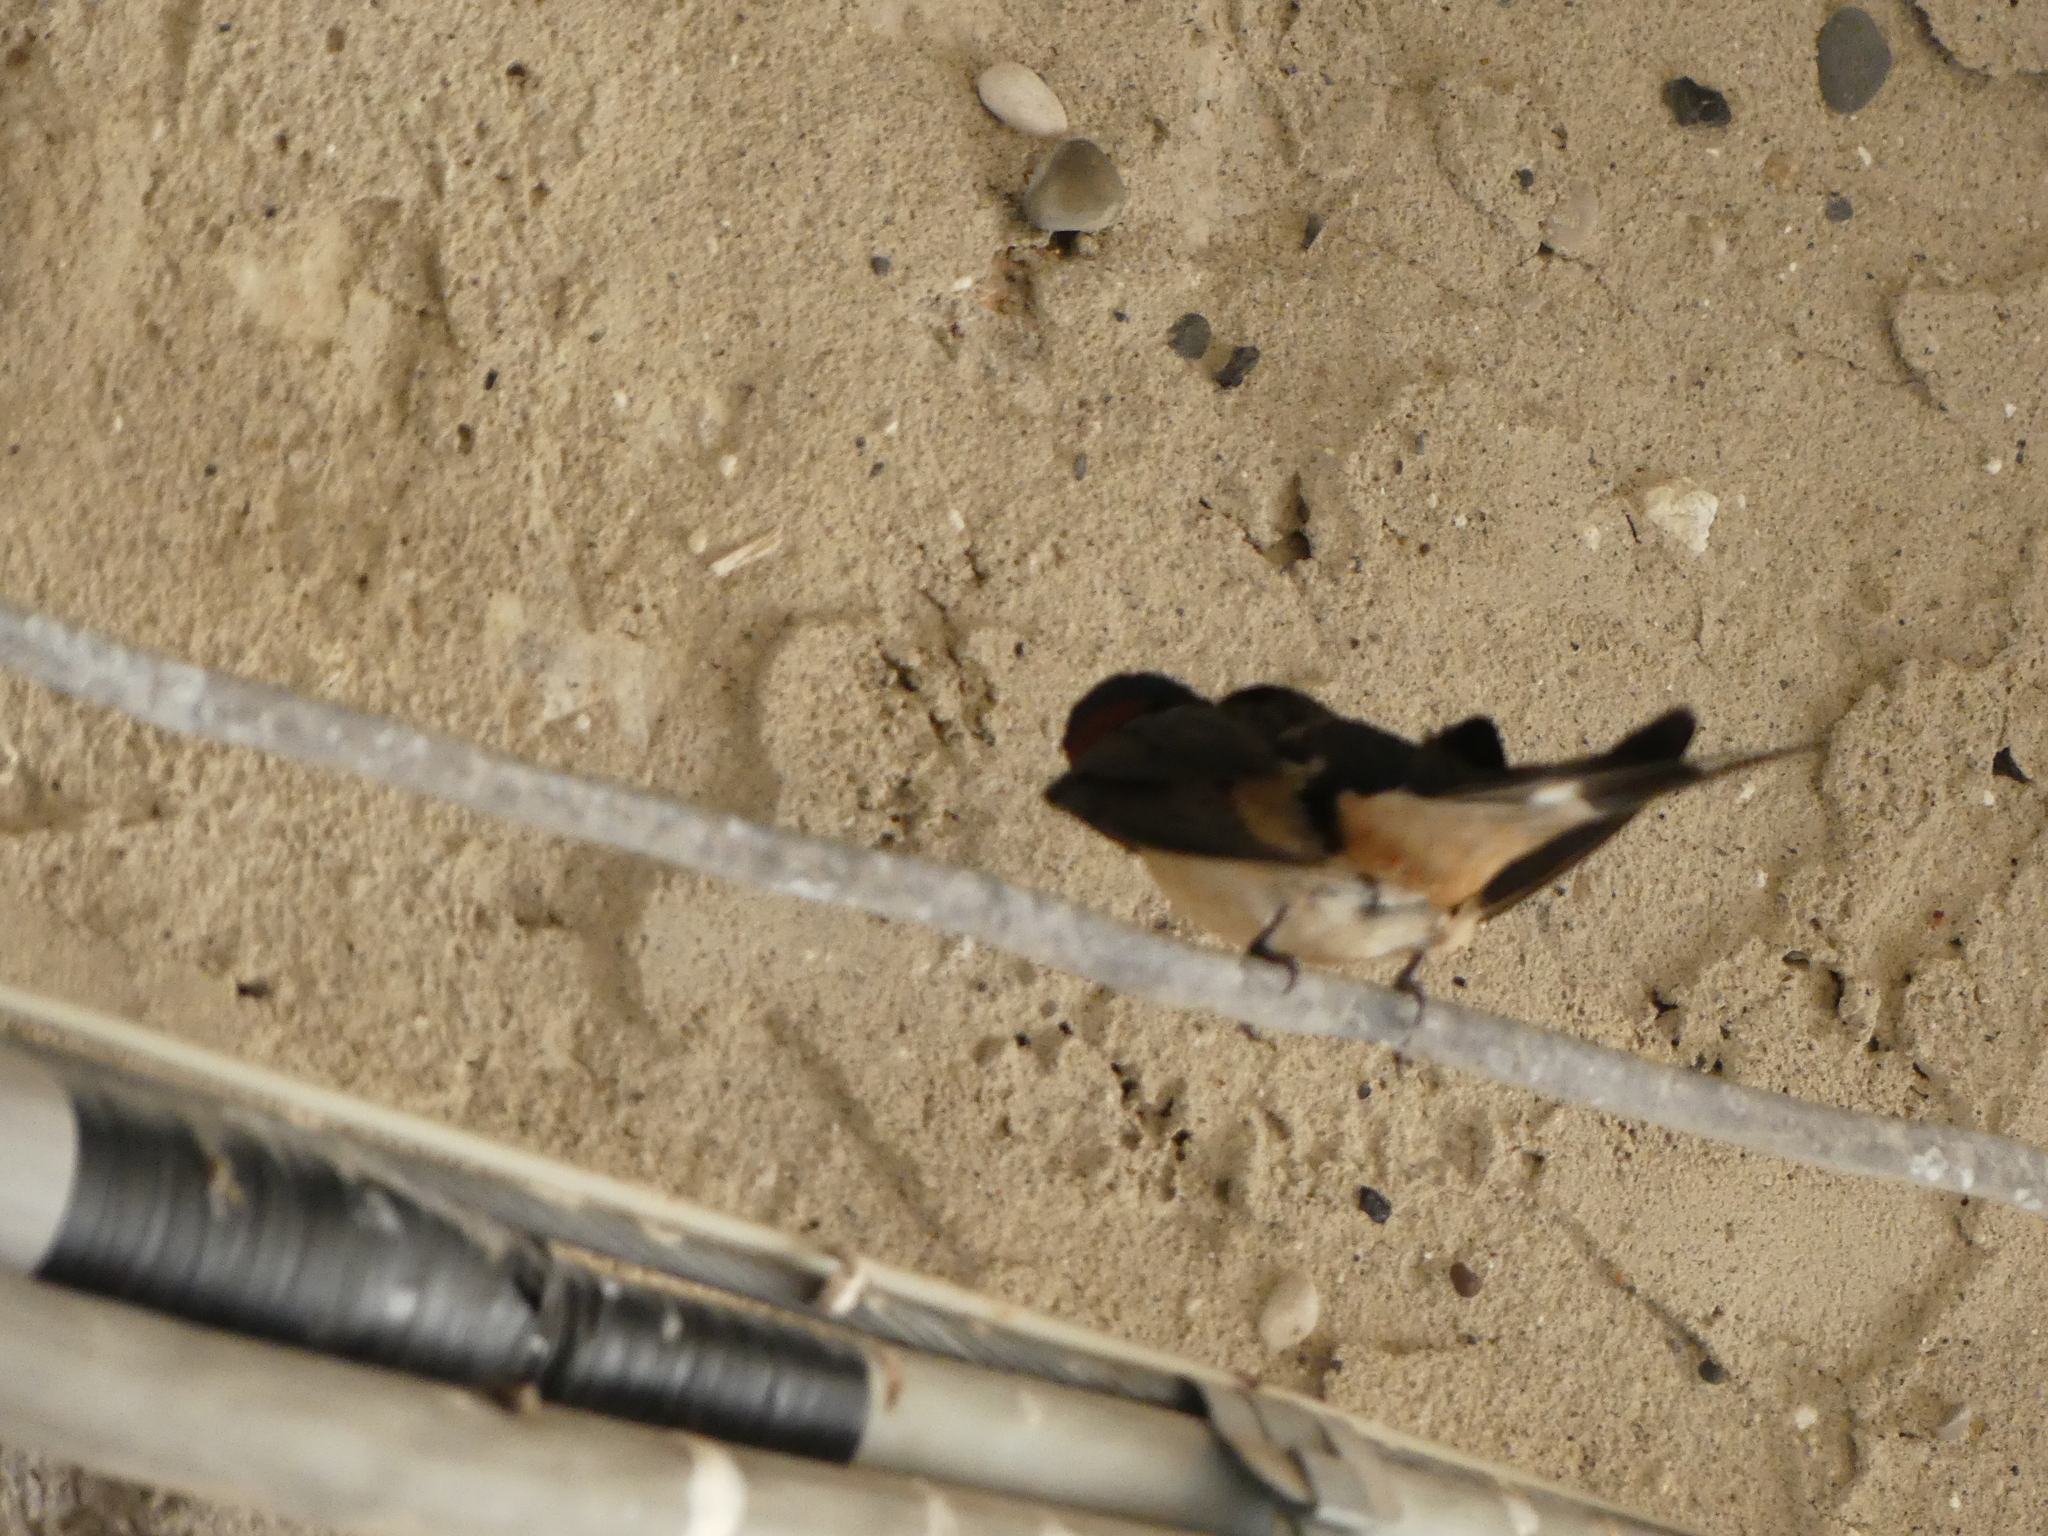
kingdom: Animalia
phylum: Chordata
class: Aves
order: Passeriformes
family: Hirundinidae
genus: Hirundo
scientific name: Hirundo rustica
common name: Barn swallow
